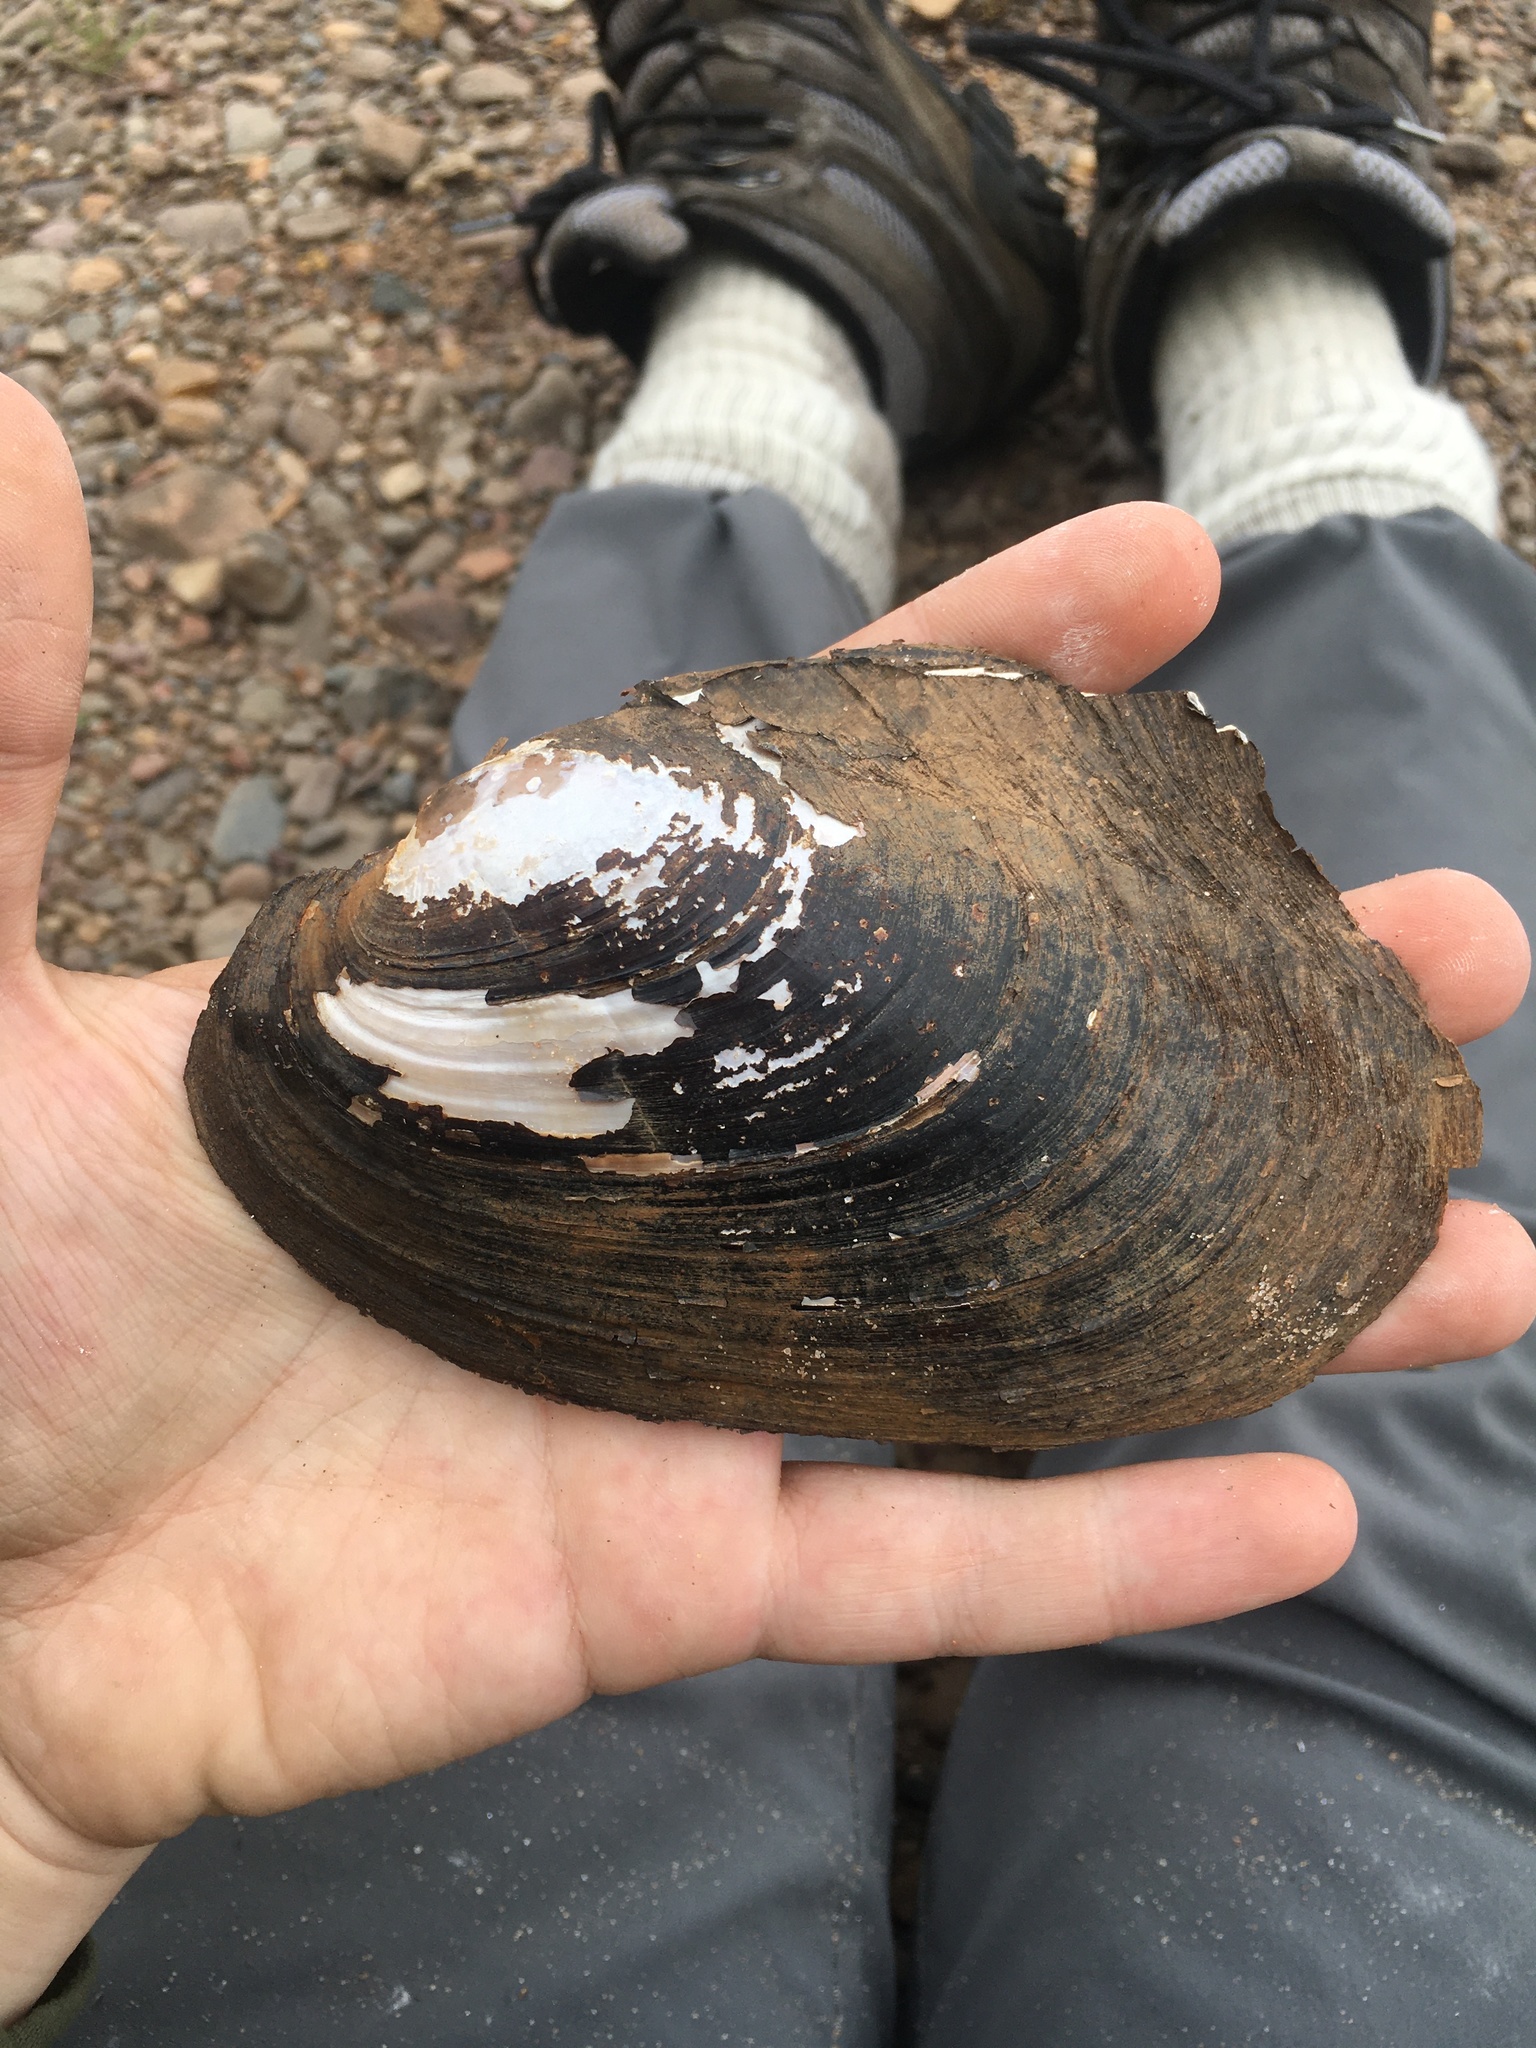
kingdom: Animalia
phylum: Mollusca
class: Bivalvia
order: Unionida
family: Unionidae
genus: Potamilus
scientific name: Potamilus alatus
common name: Pink heelsplitter
